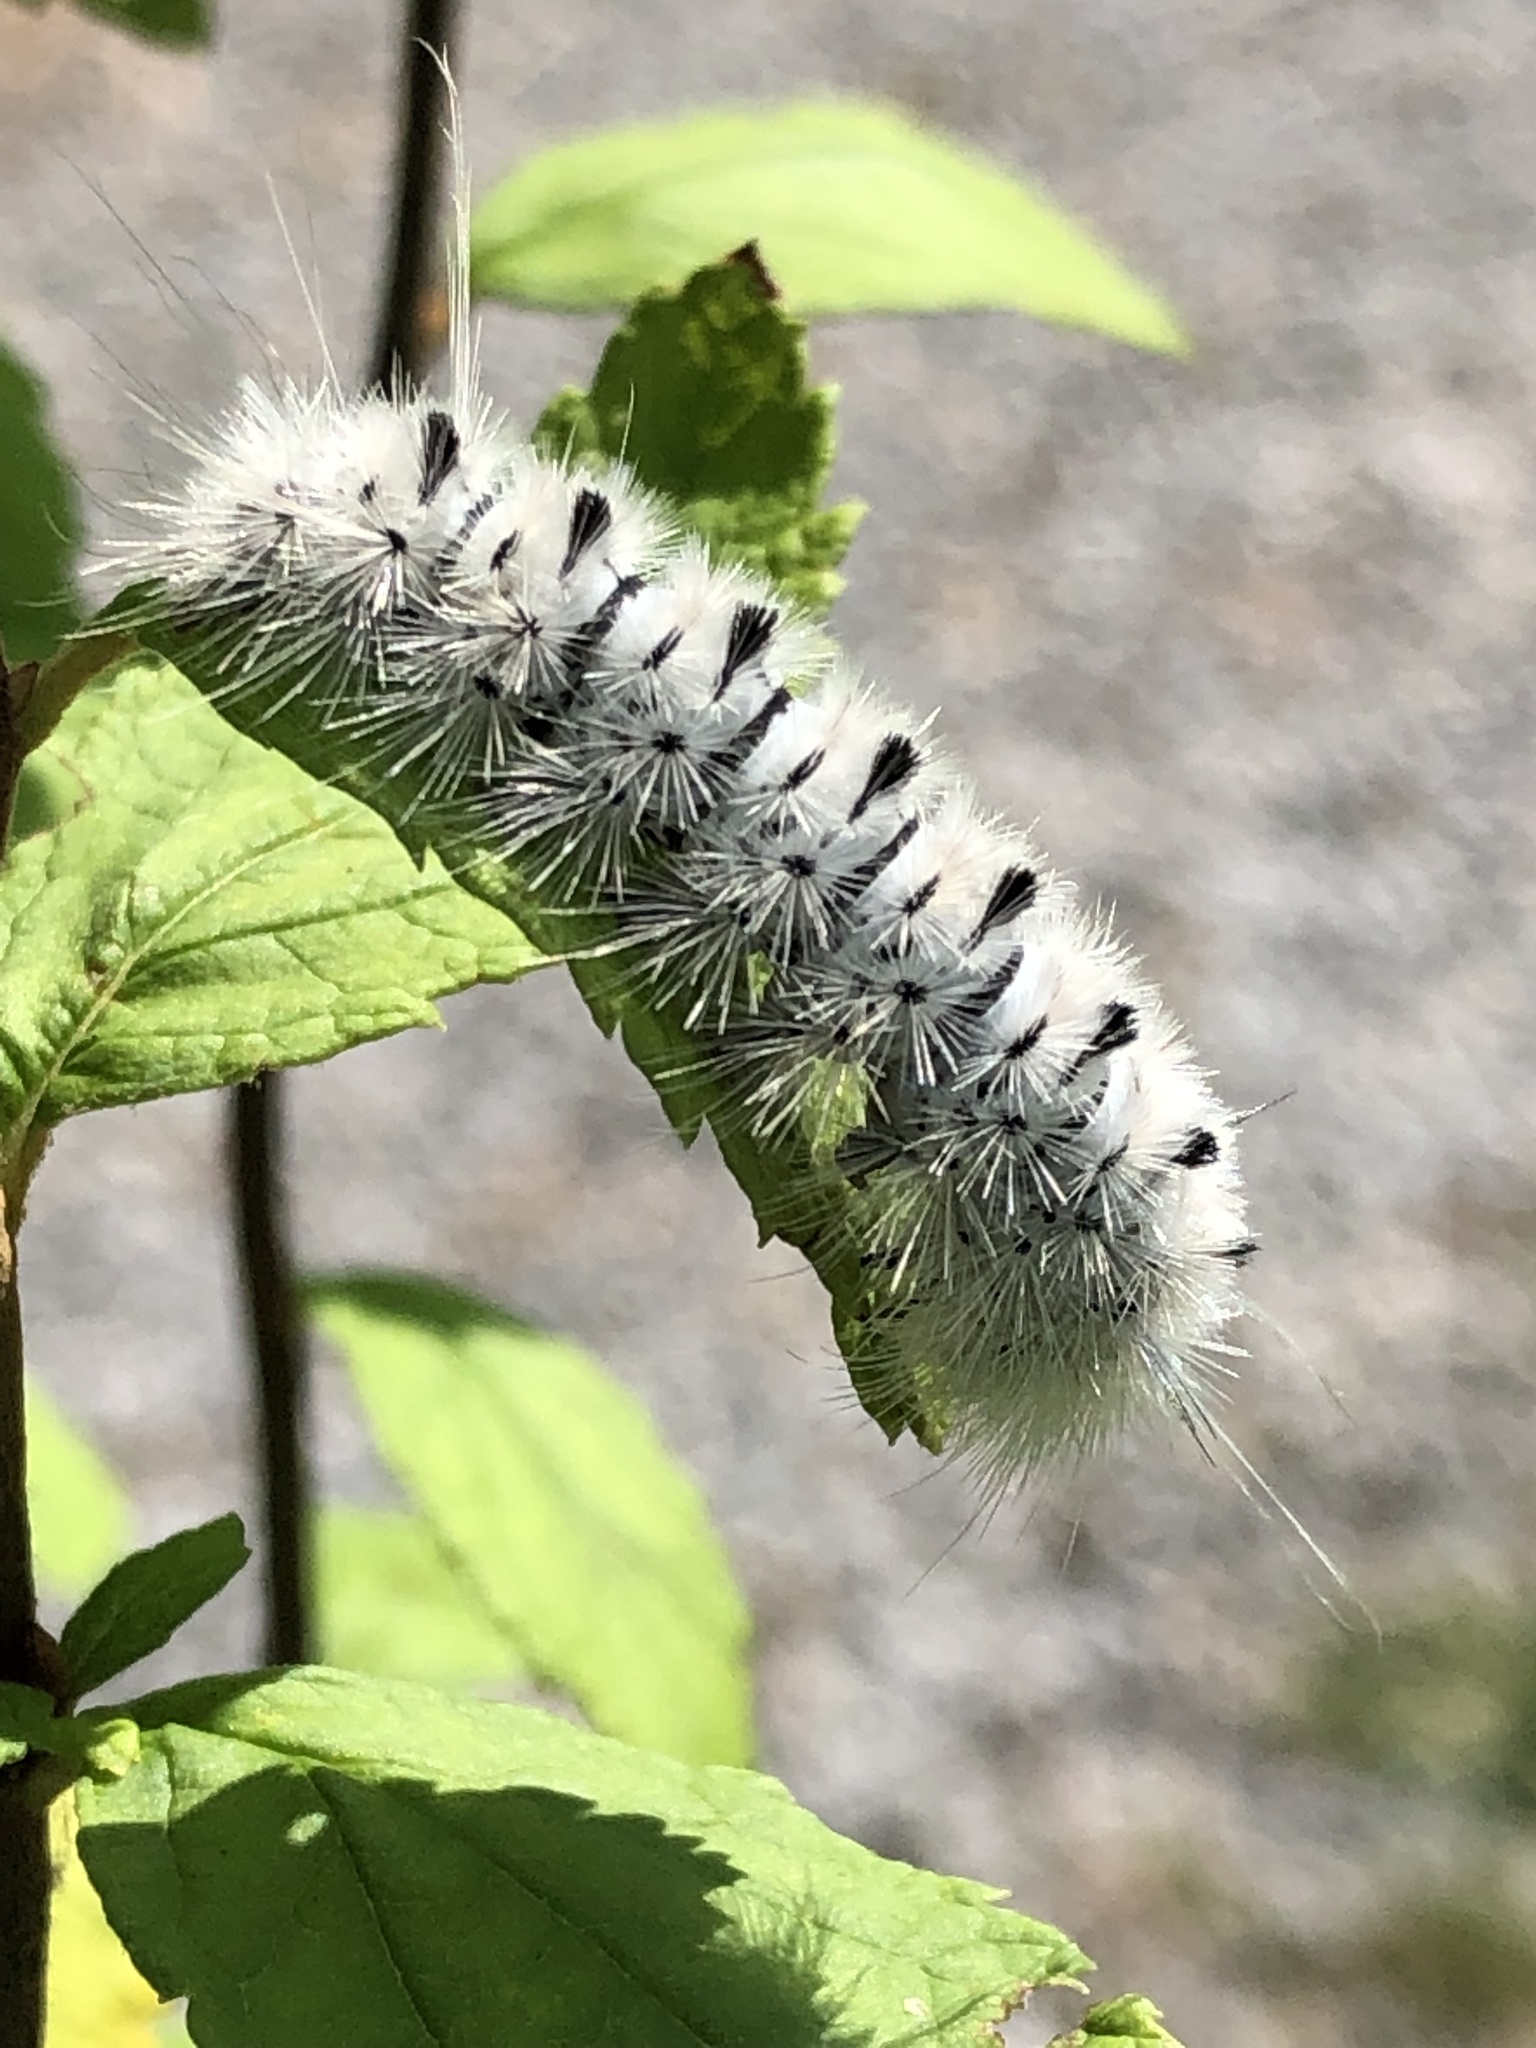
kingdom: Animalia
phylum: Arthropoda
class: Insecta
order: Lepidoptera
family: Erebidae
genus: Lophocampa
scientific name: Lophocampa caryae
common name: Hickory tussock moth
